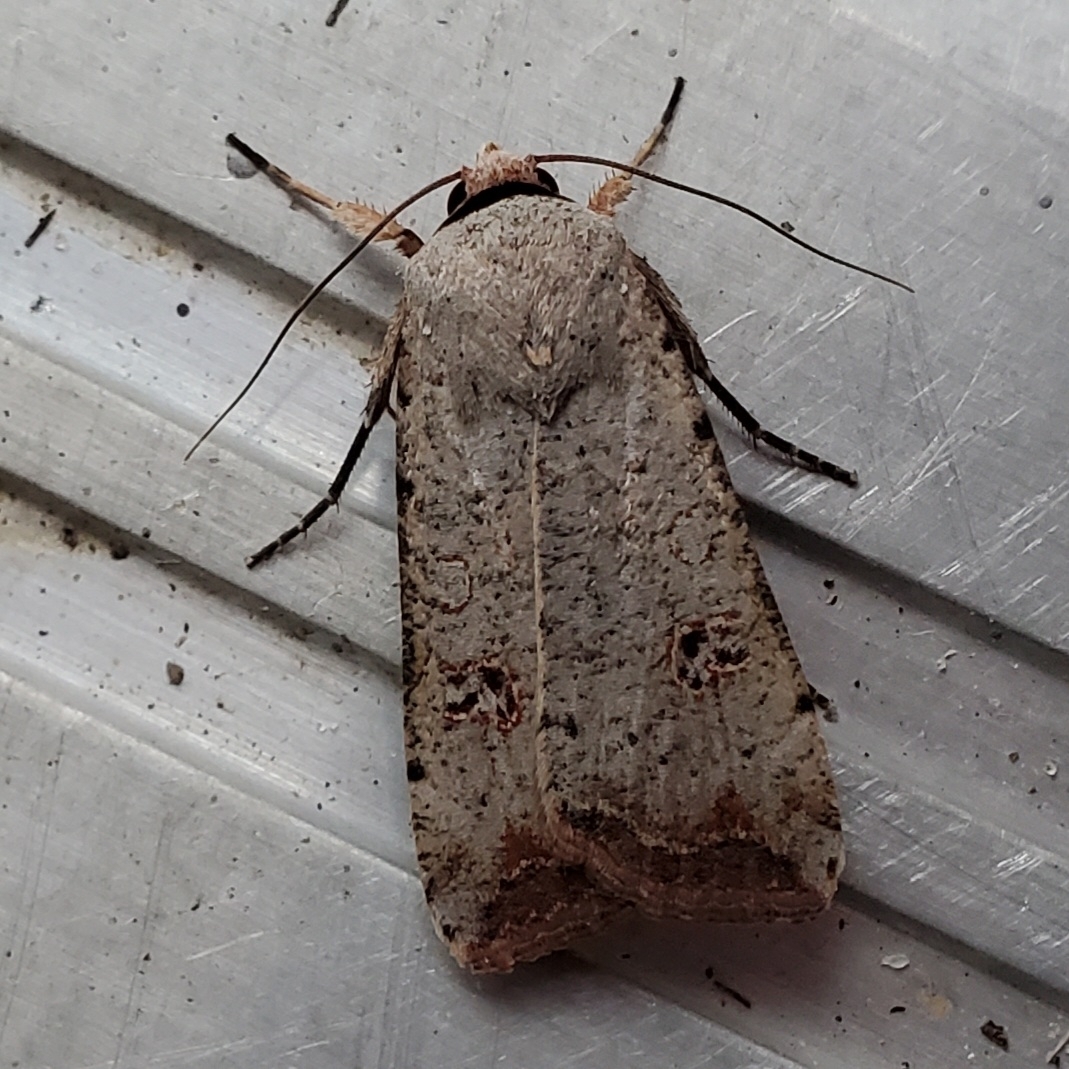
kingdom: Animalia
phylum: Arthropoda
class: Insecta
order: Lepidoptera
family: Noctuidae
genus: Anicla
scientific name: Anicla infecta
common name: Green cutworm
